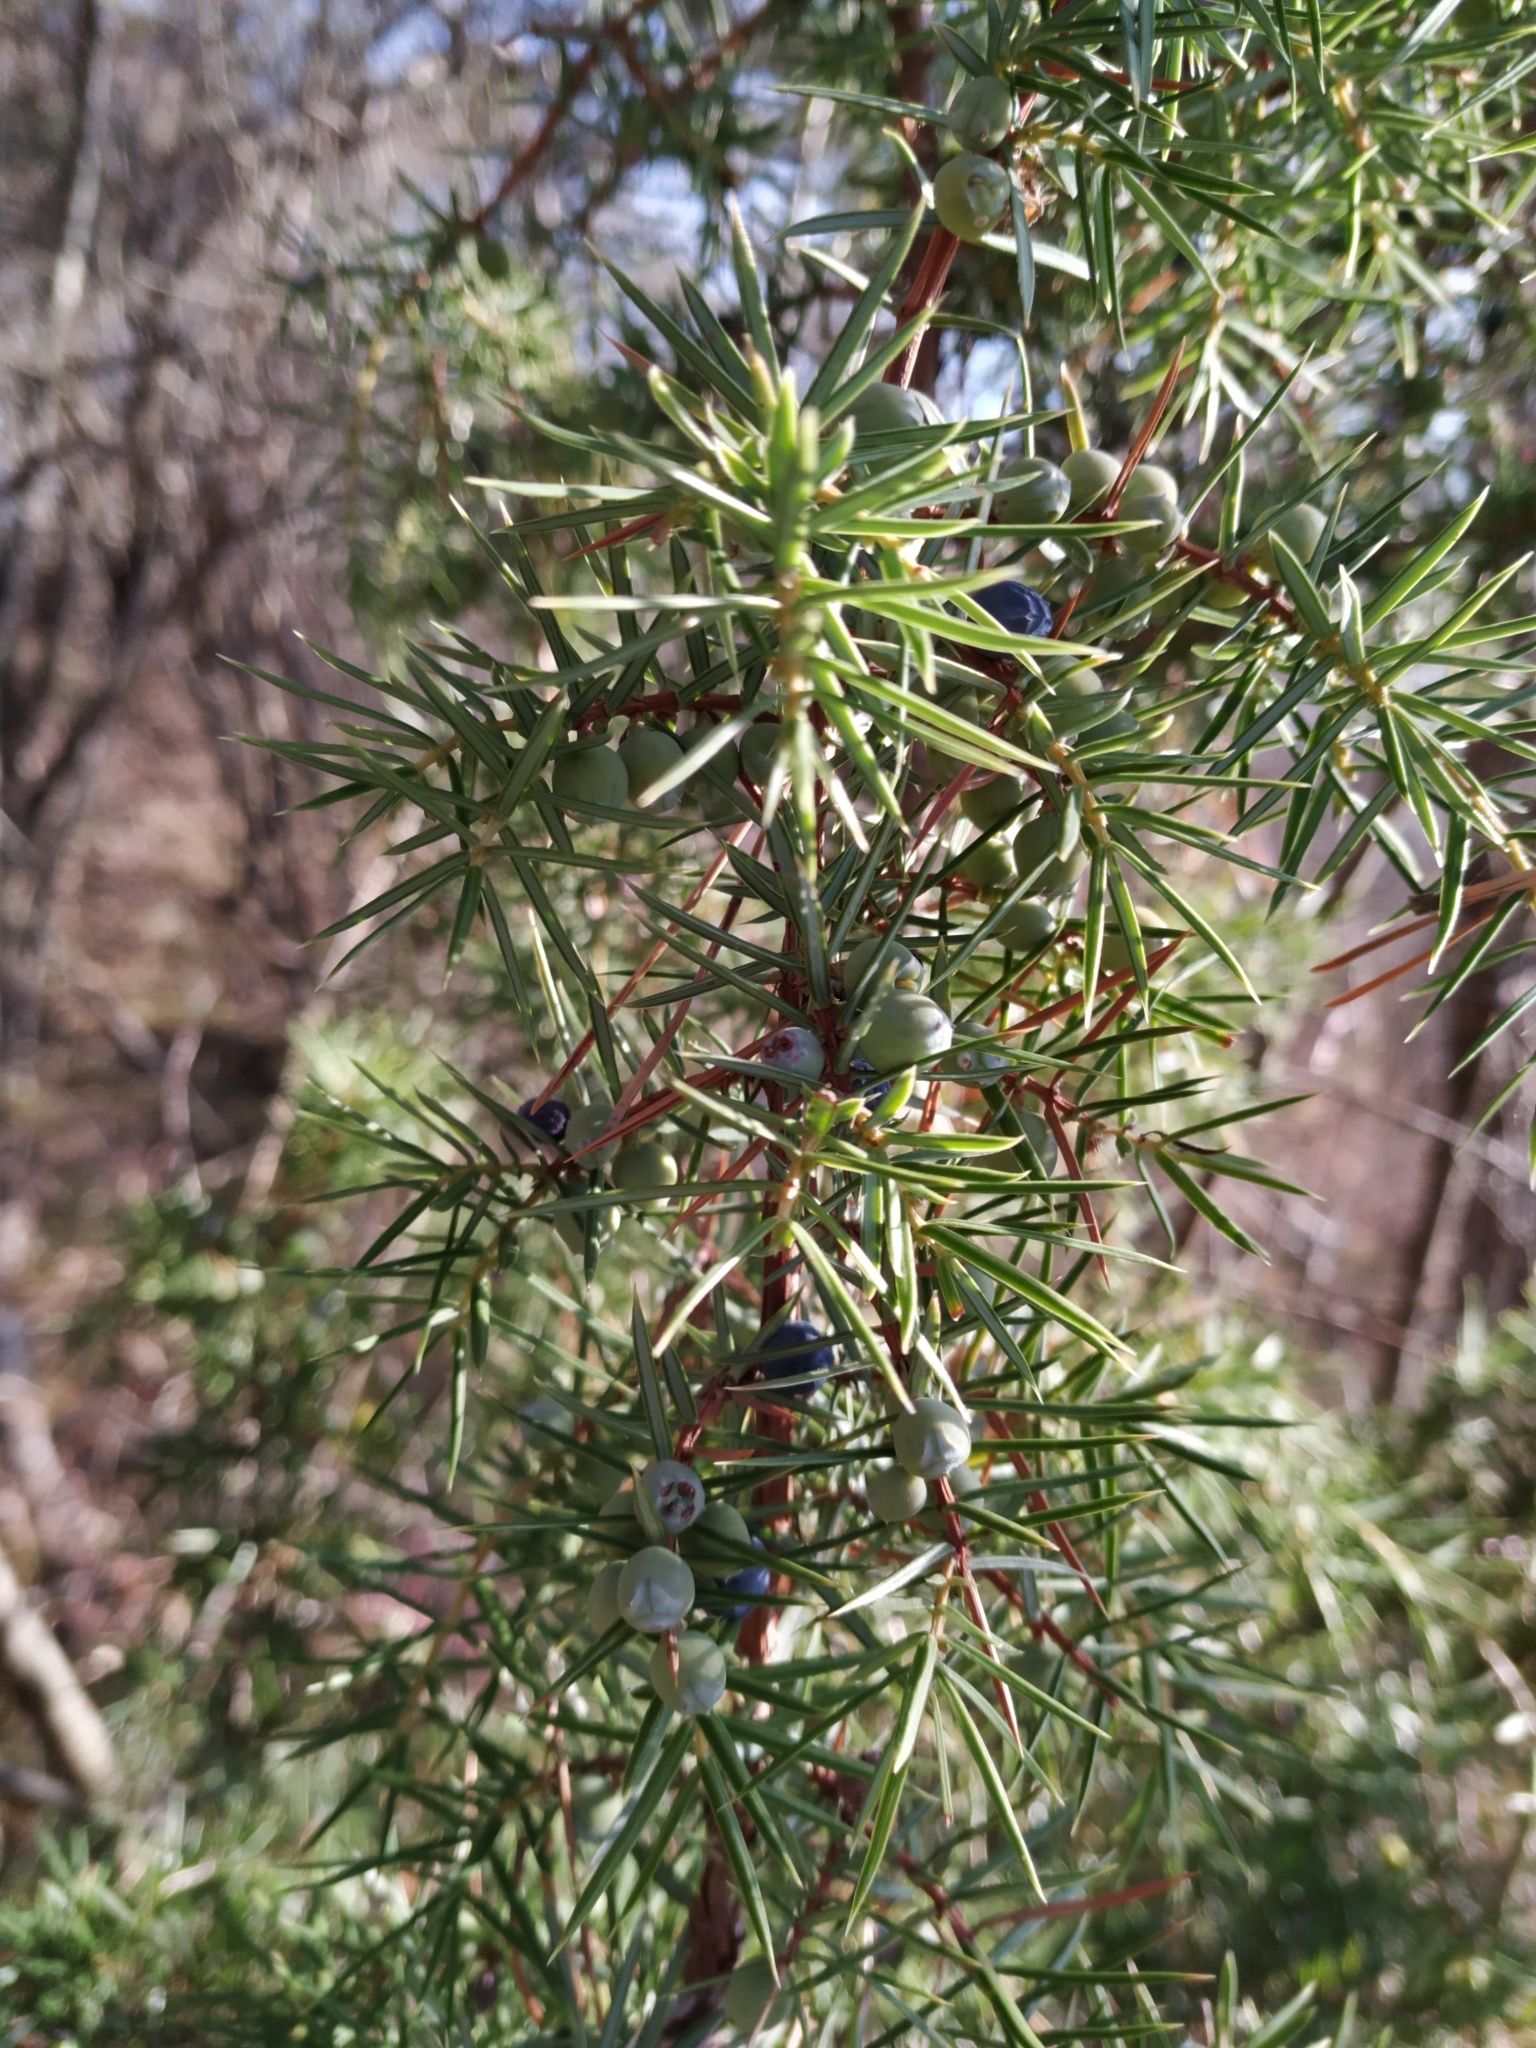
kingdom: Plantae
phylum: Tracheophyta
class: Pinopsida
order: Pinales
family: Cupressaceae
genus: Juniperus
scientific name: Juniperus communis
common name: Common juniper
